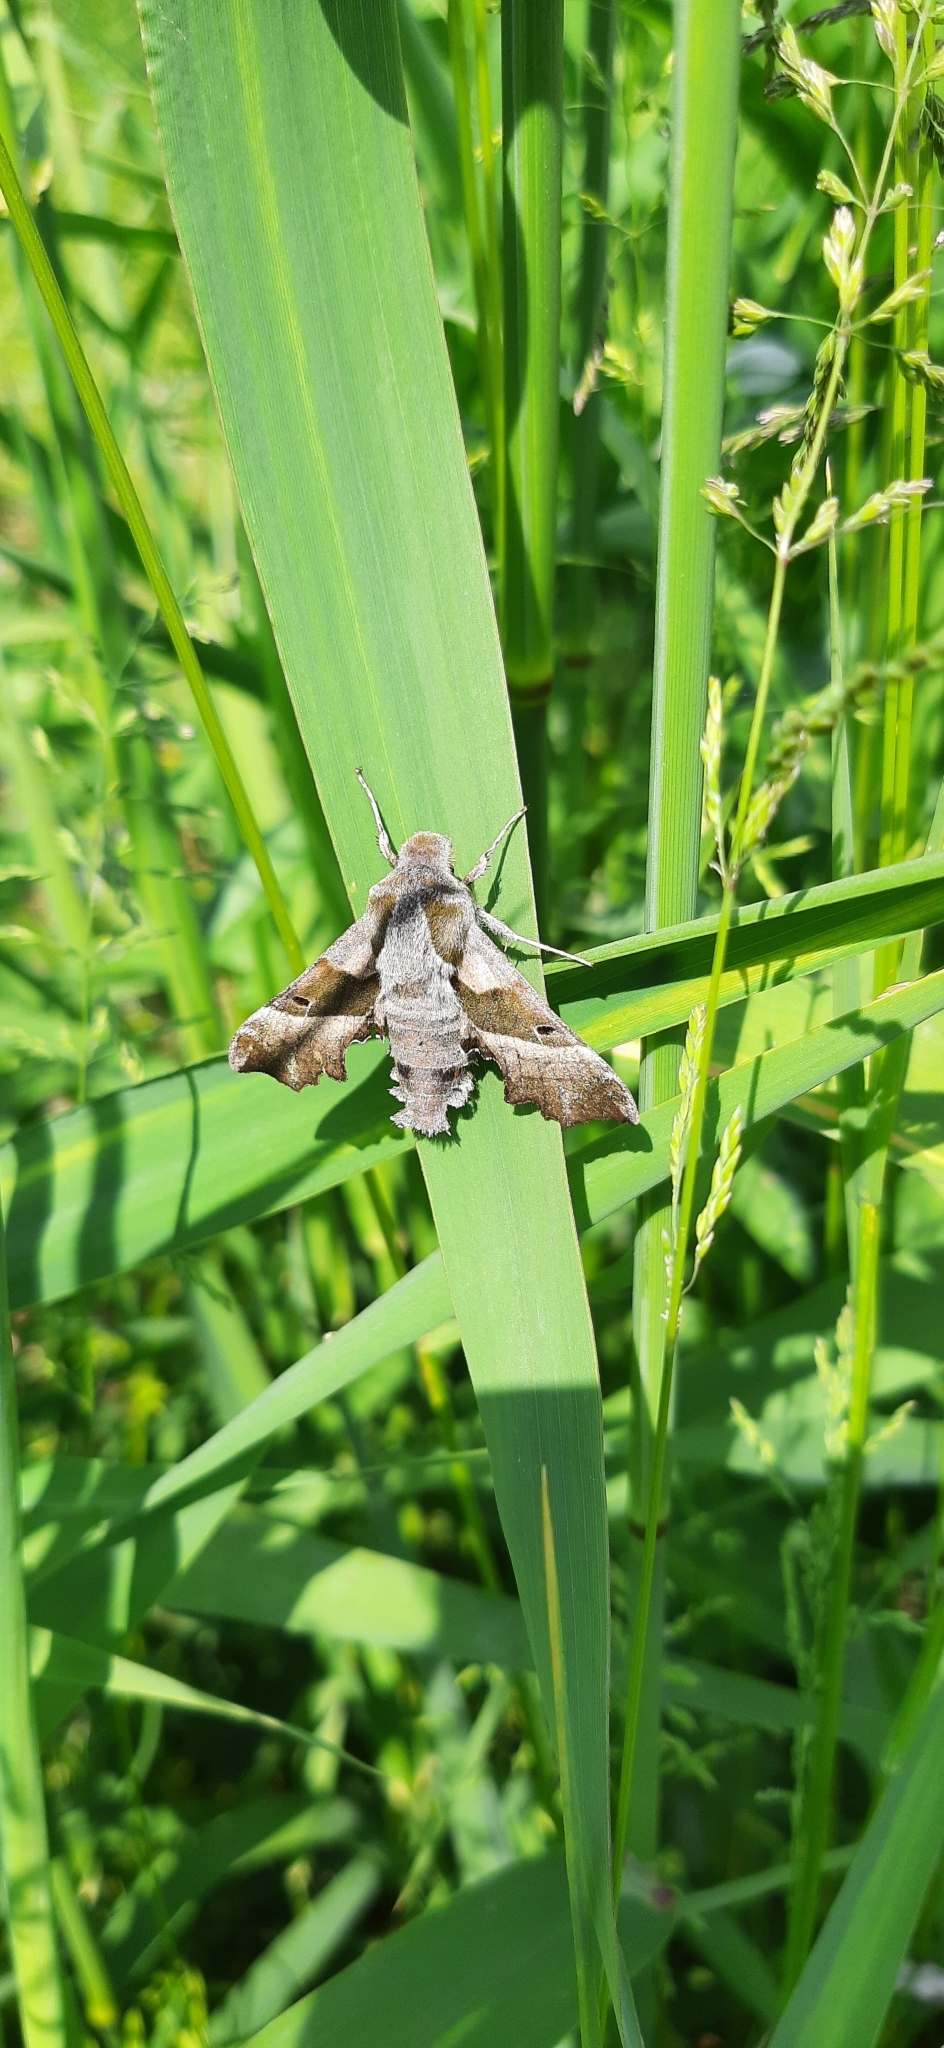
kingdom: Animalia
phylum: Arthropoda
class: Insecta
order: Lepidoptera
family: Sphingidae
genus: Proserpinus
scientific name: Proserpinus proserpina
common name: Willowherb hawkmoth
